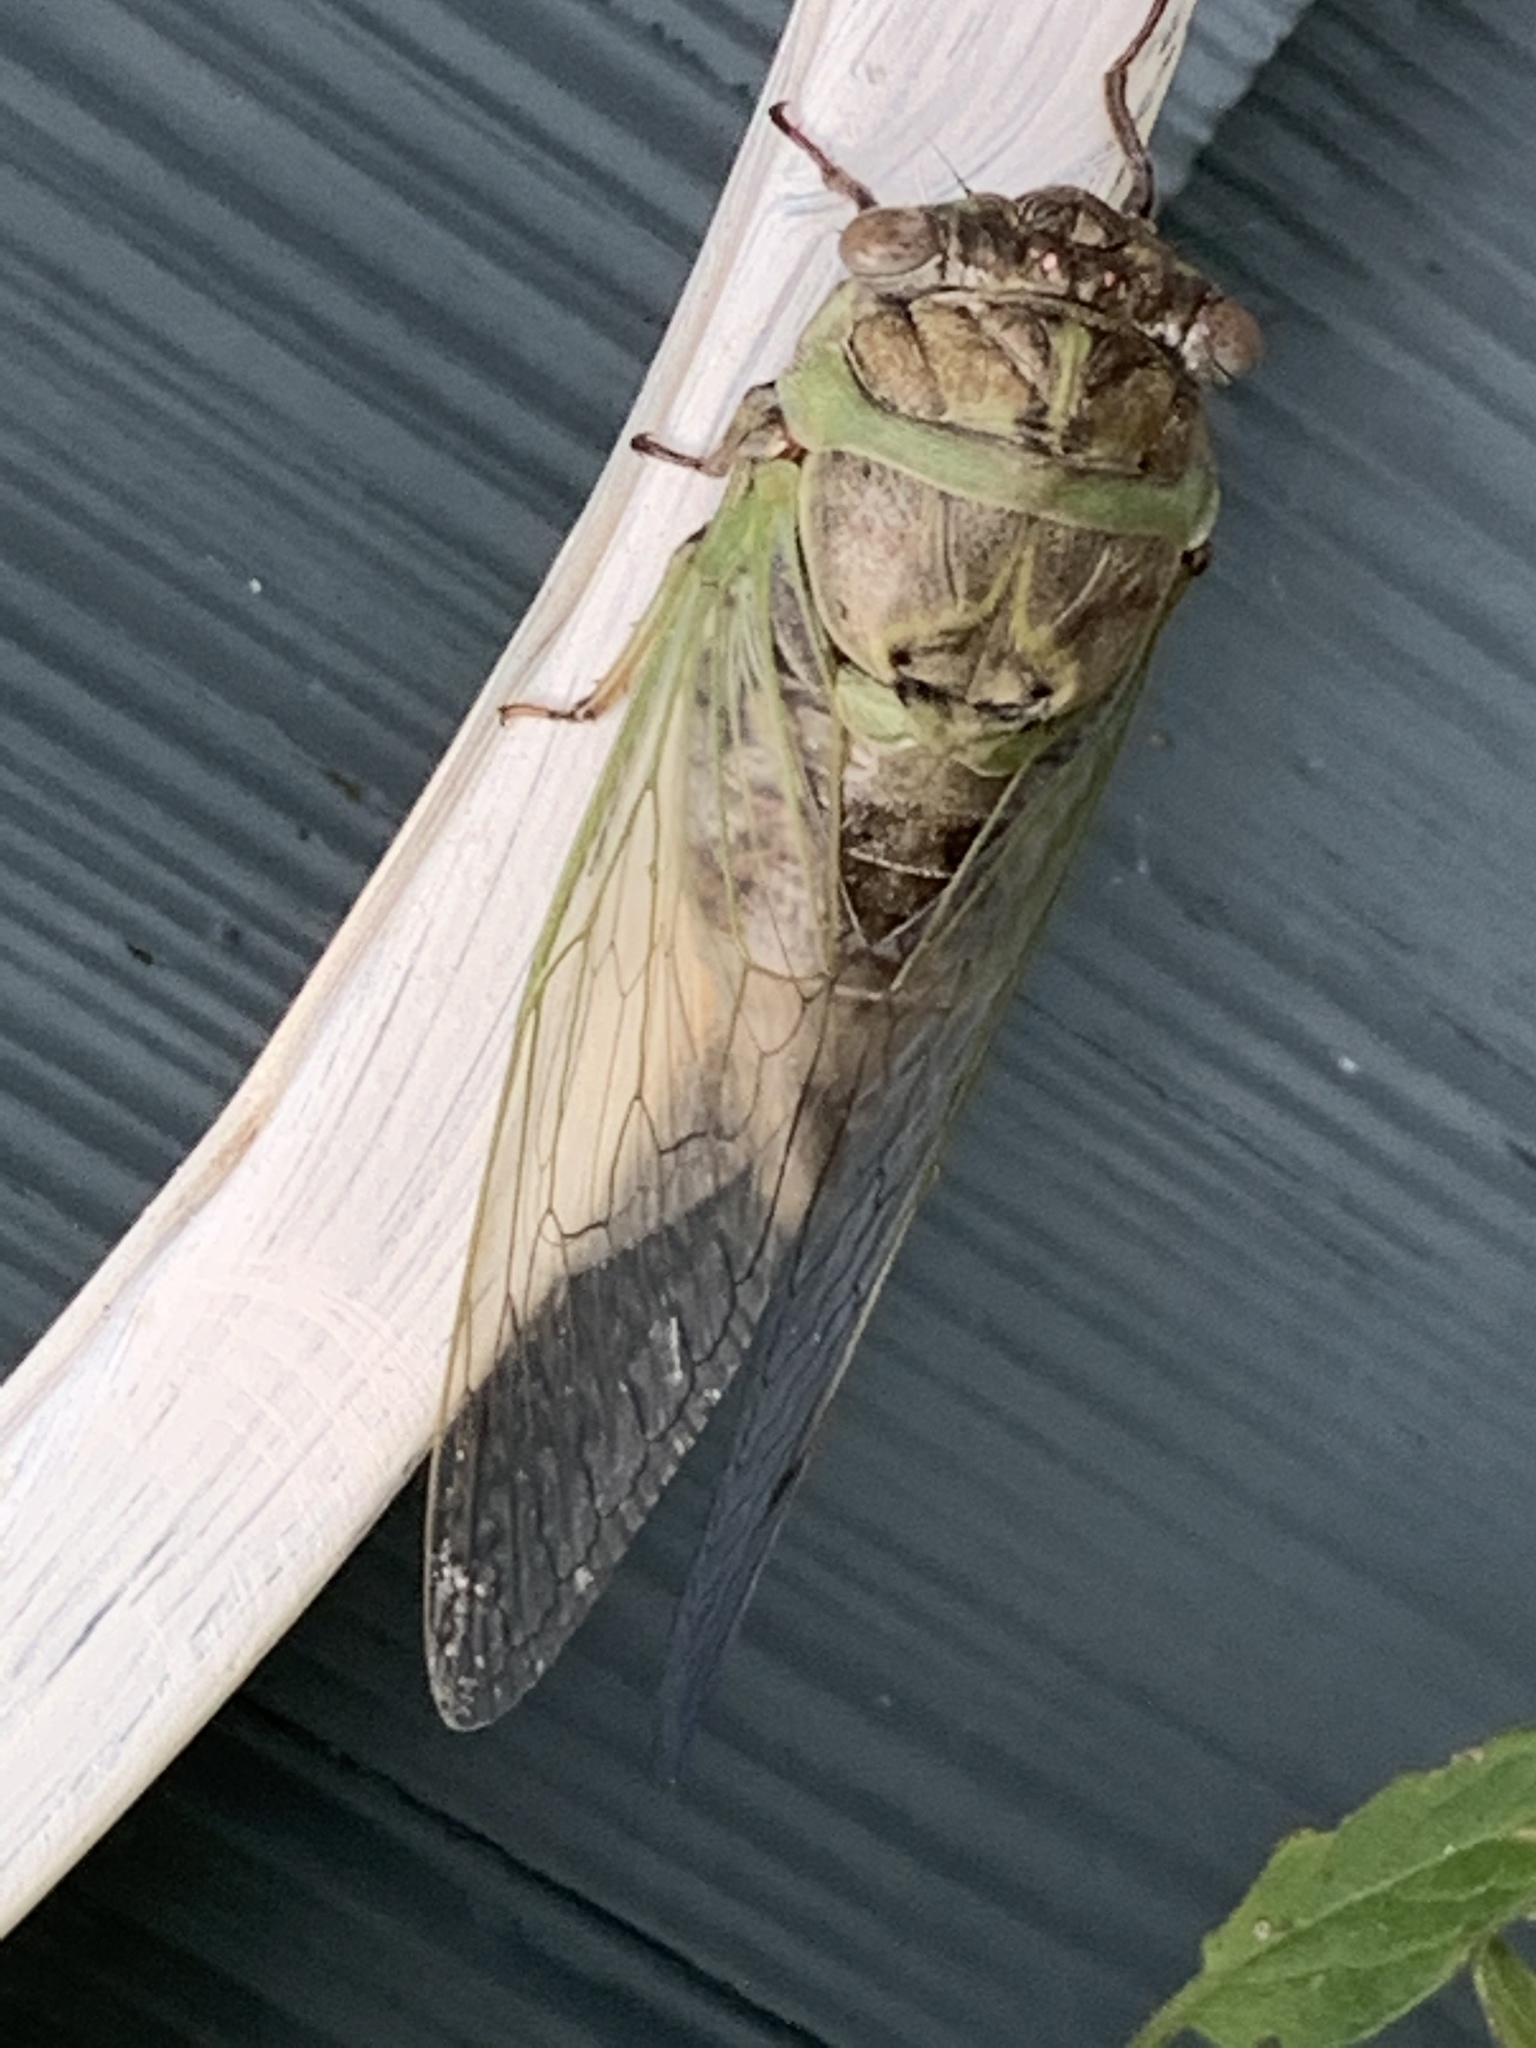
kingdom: Animalia
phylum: Arthropoda
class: Insecta
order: Hemiptera
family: Cicadidae
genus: Diceroprocta
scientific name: Diceroprocta grossa
